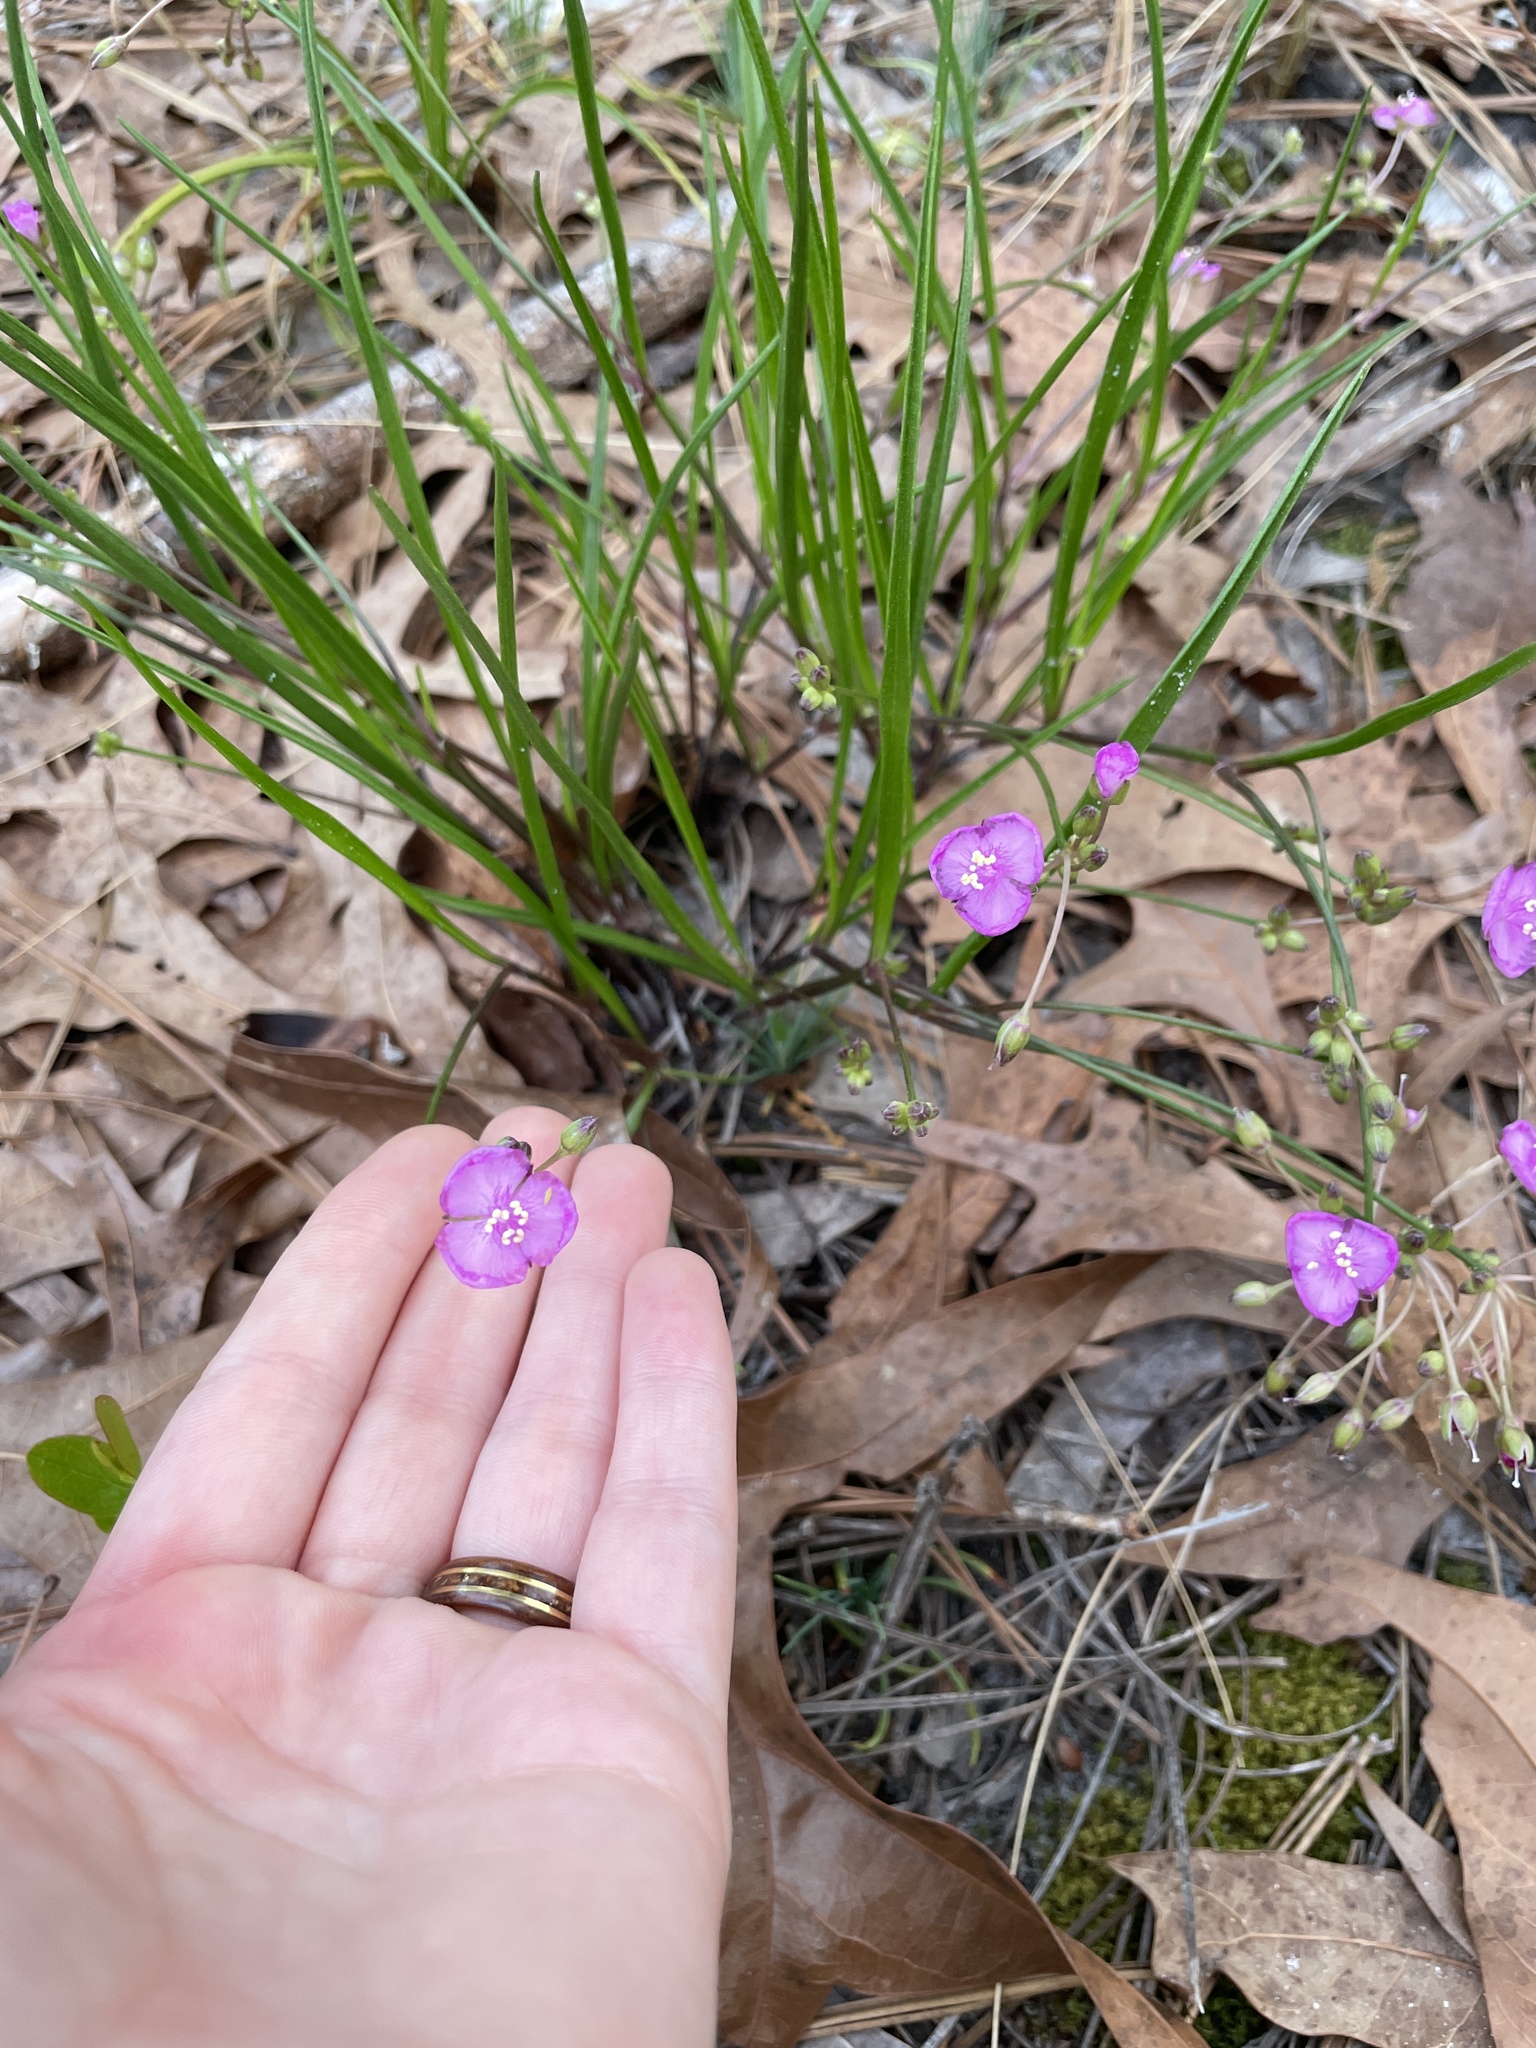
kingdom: Plantae
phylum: Tracheophyta
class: Liliopsida
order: Commelinales
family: Commelinaceae
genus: Callisia
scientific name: Callisia graminea
